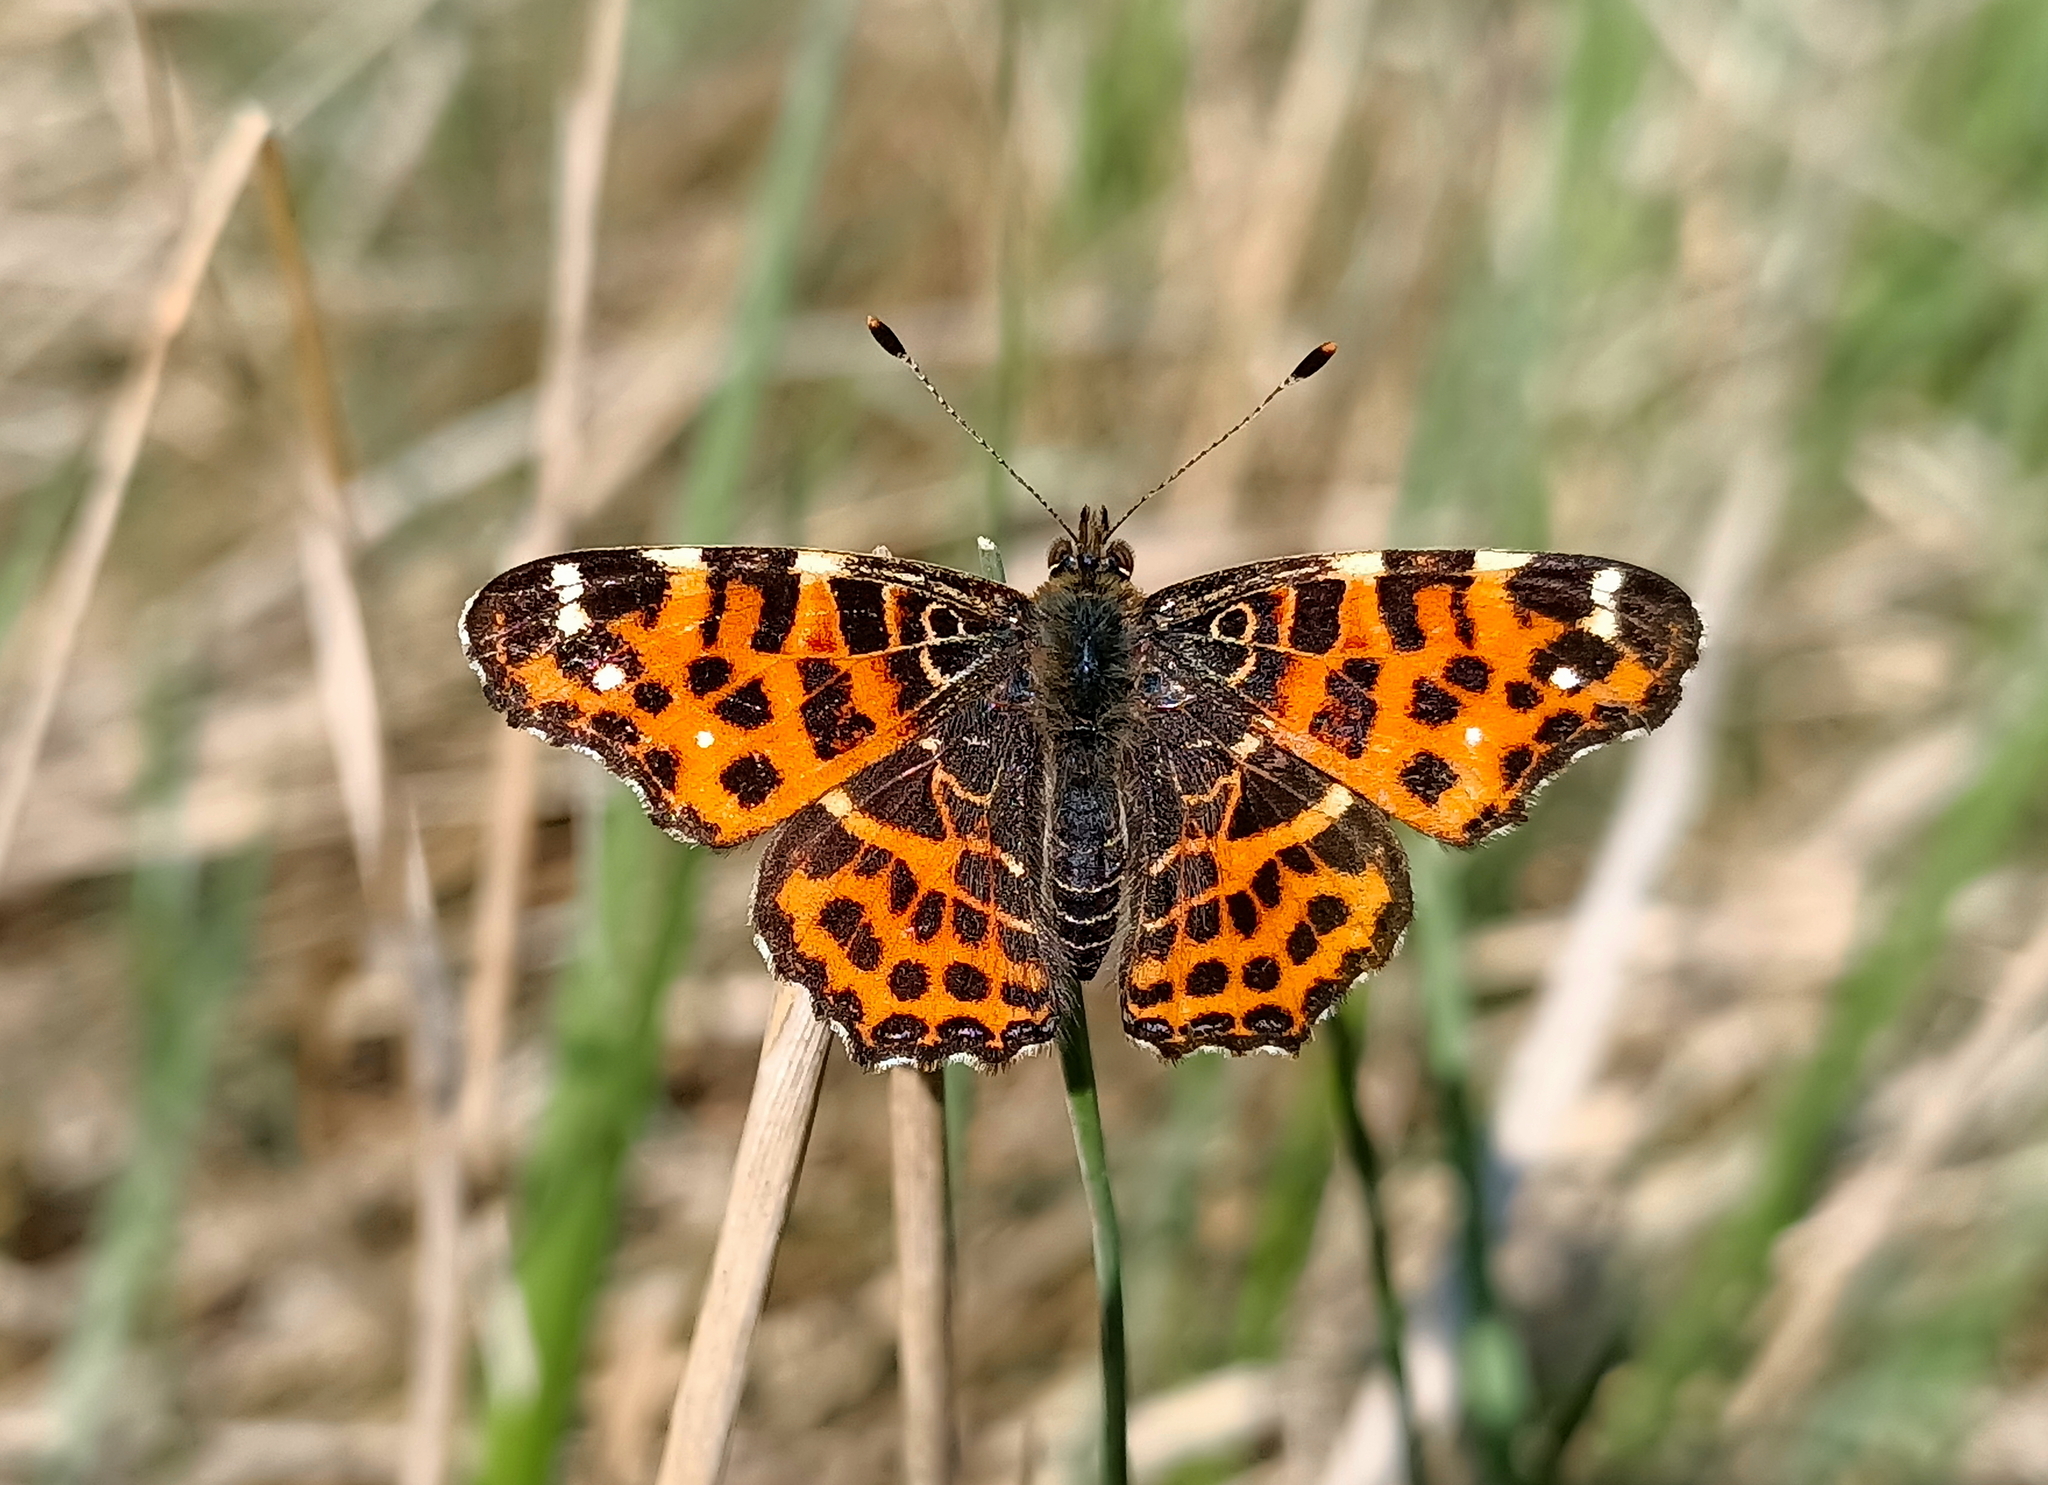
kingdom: Animalia
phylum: Arthropoda
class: Insecta
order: Lepidoptera
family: Nymphalidae
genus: Araschnia
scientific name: Araschnia levana
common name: Map butterfly
